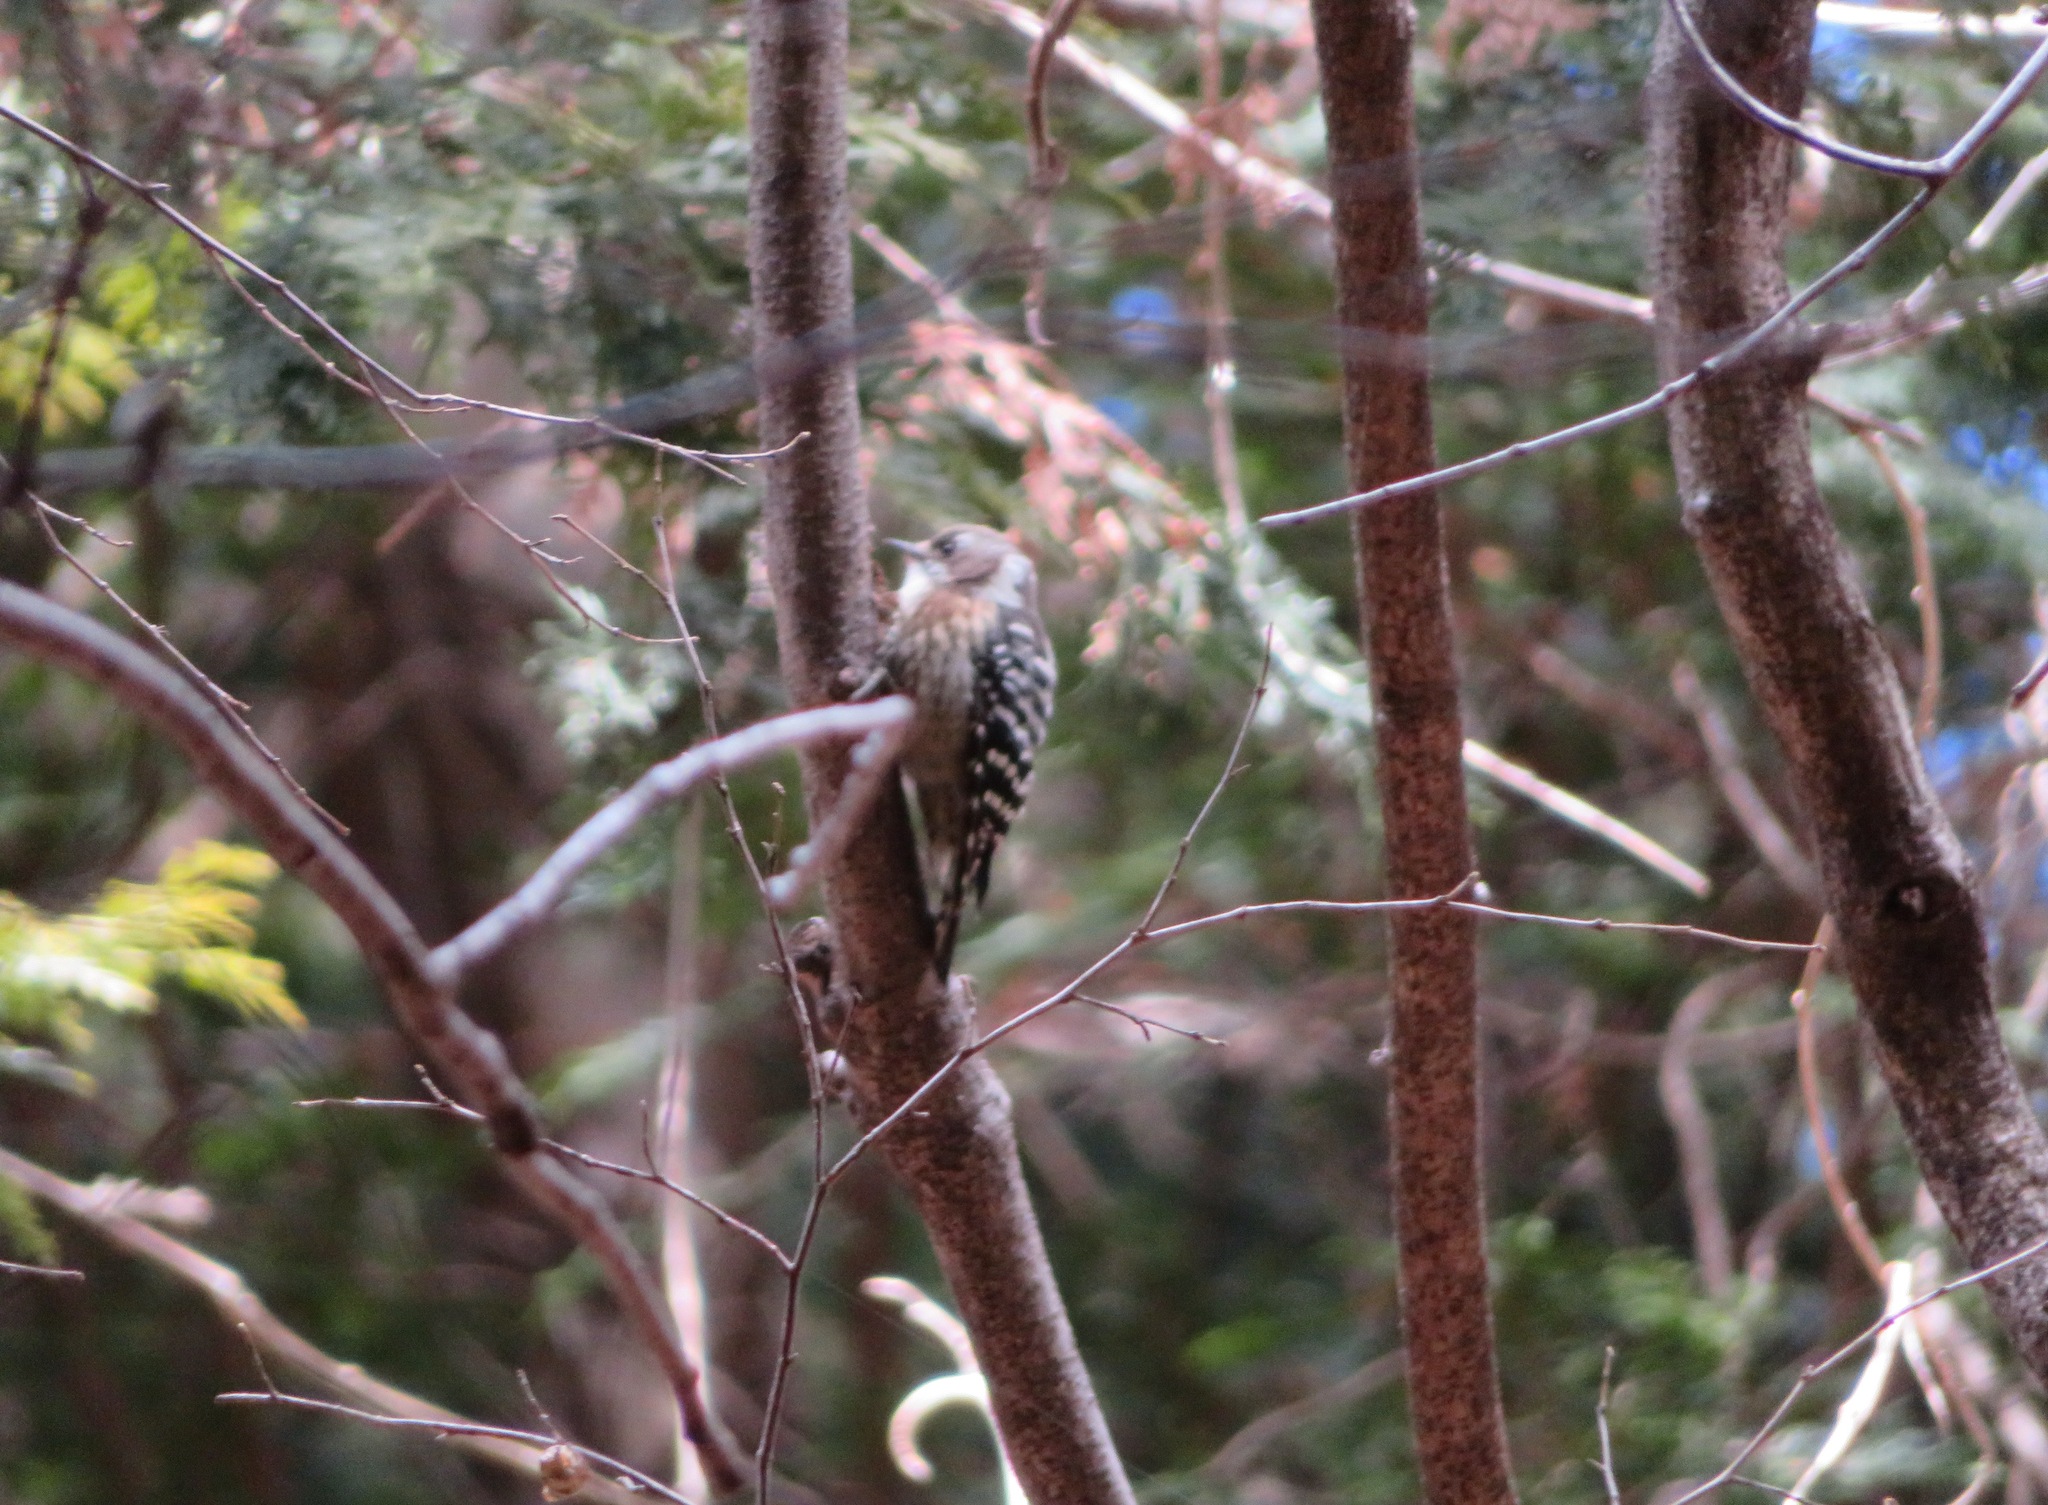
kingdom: Animalia
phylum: Chordata
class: Aves
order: Piciformes
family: Picidae
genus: Yungipicus
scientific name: Yungipicus kizuki
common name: Japanese pygmy woodpecker
